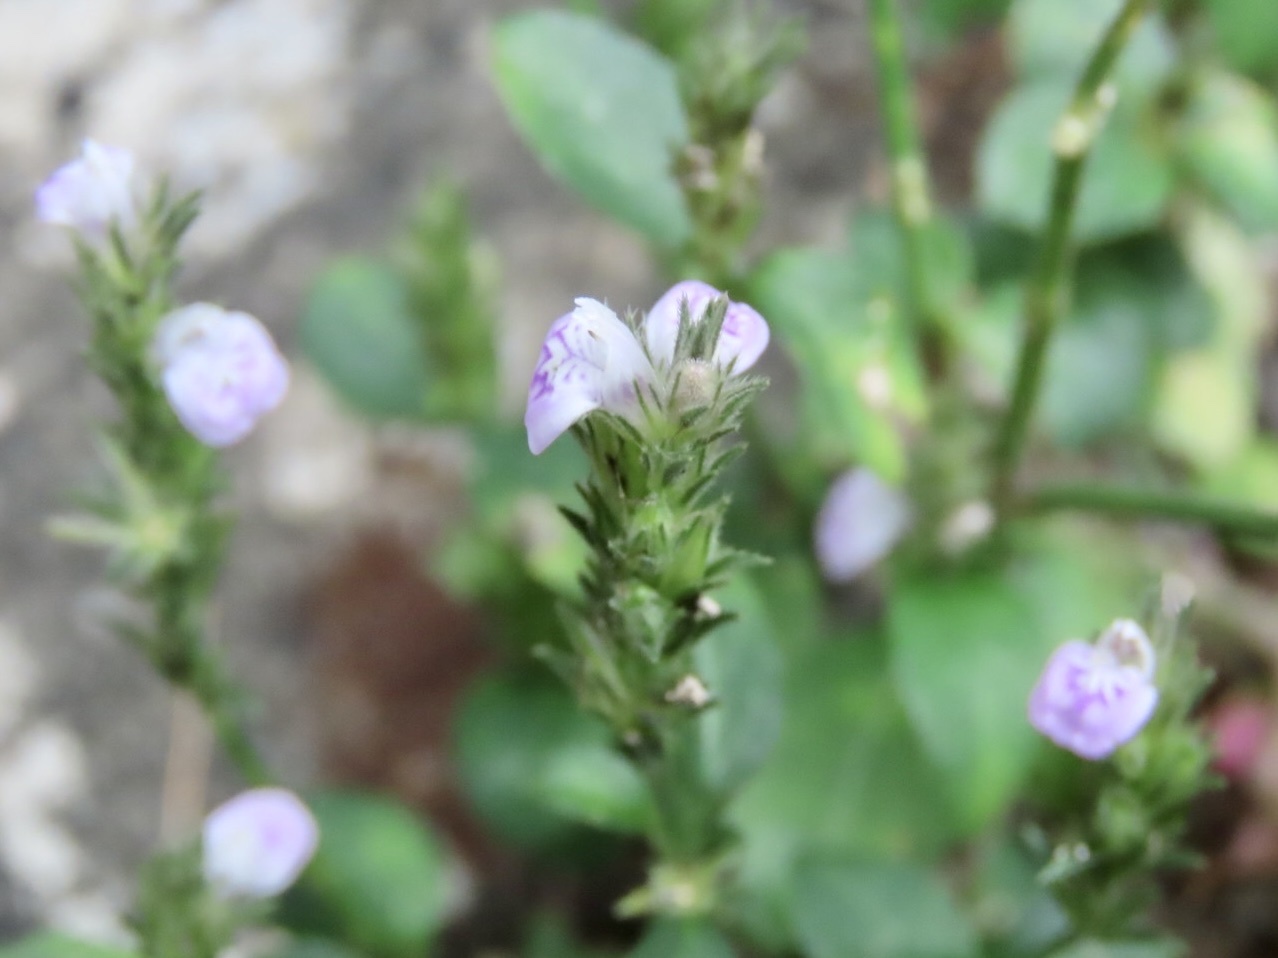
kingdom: Plantae
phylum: Tracheophyta
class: Magnoliopsida
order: Lamiales
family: Acanthaceae
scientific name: Acanthaceae
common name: Acanthaceae
